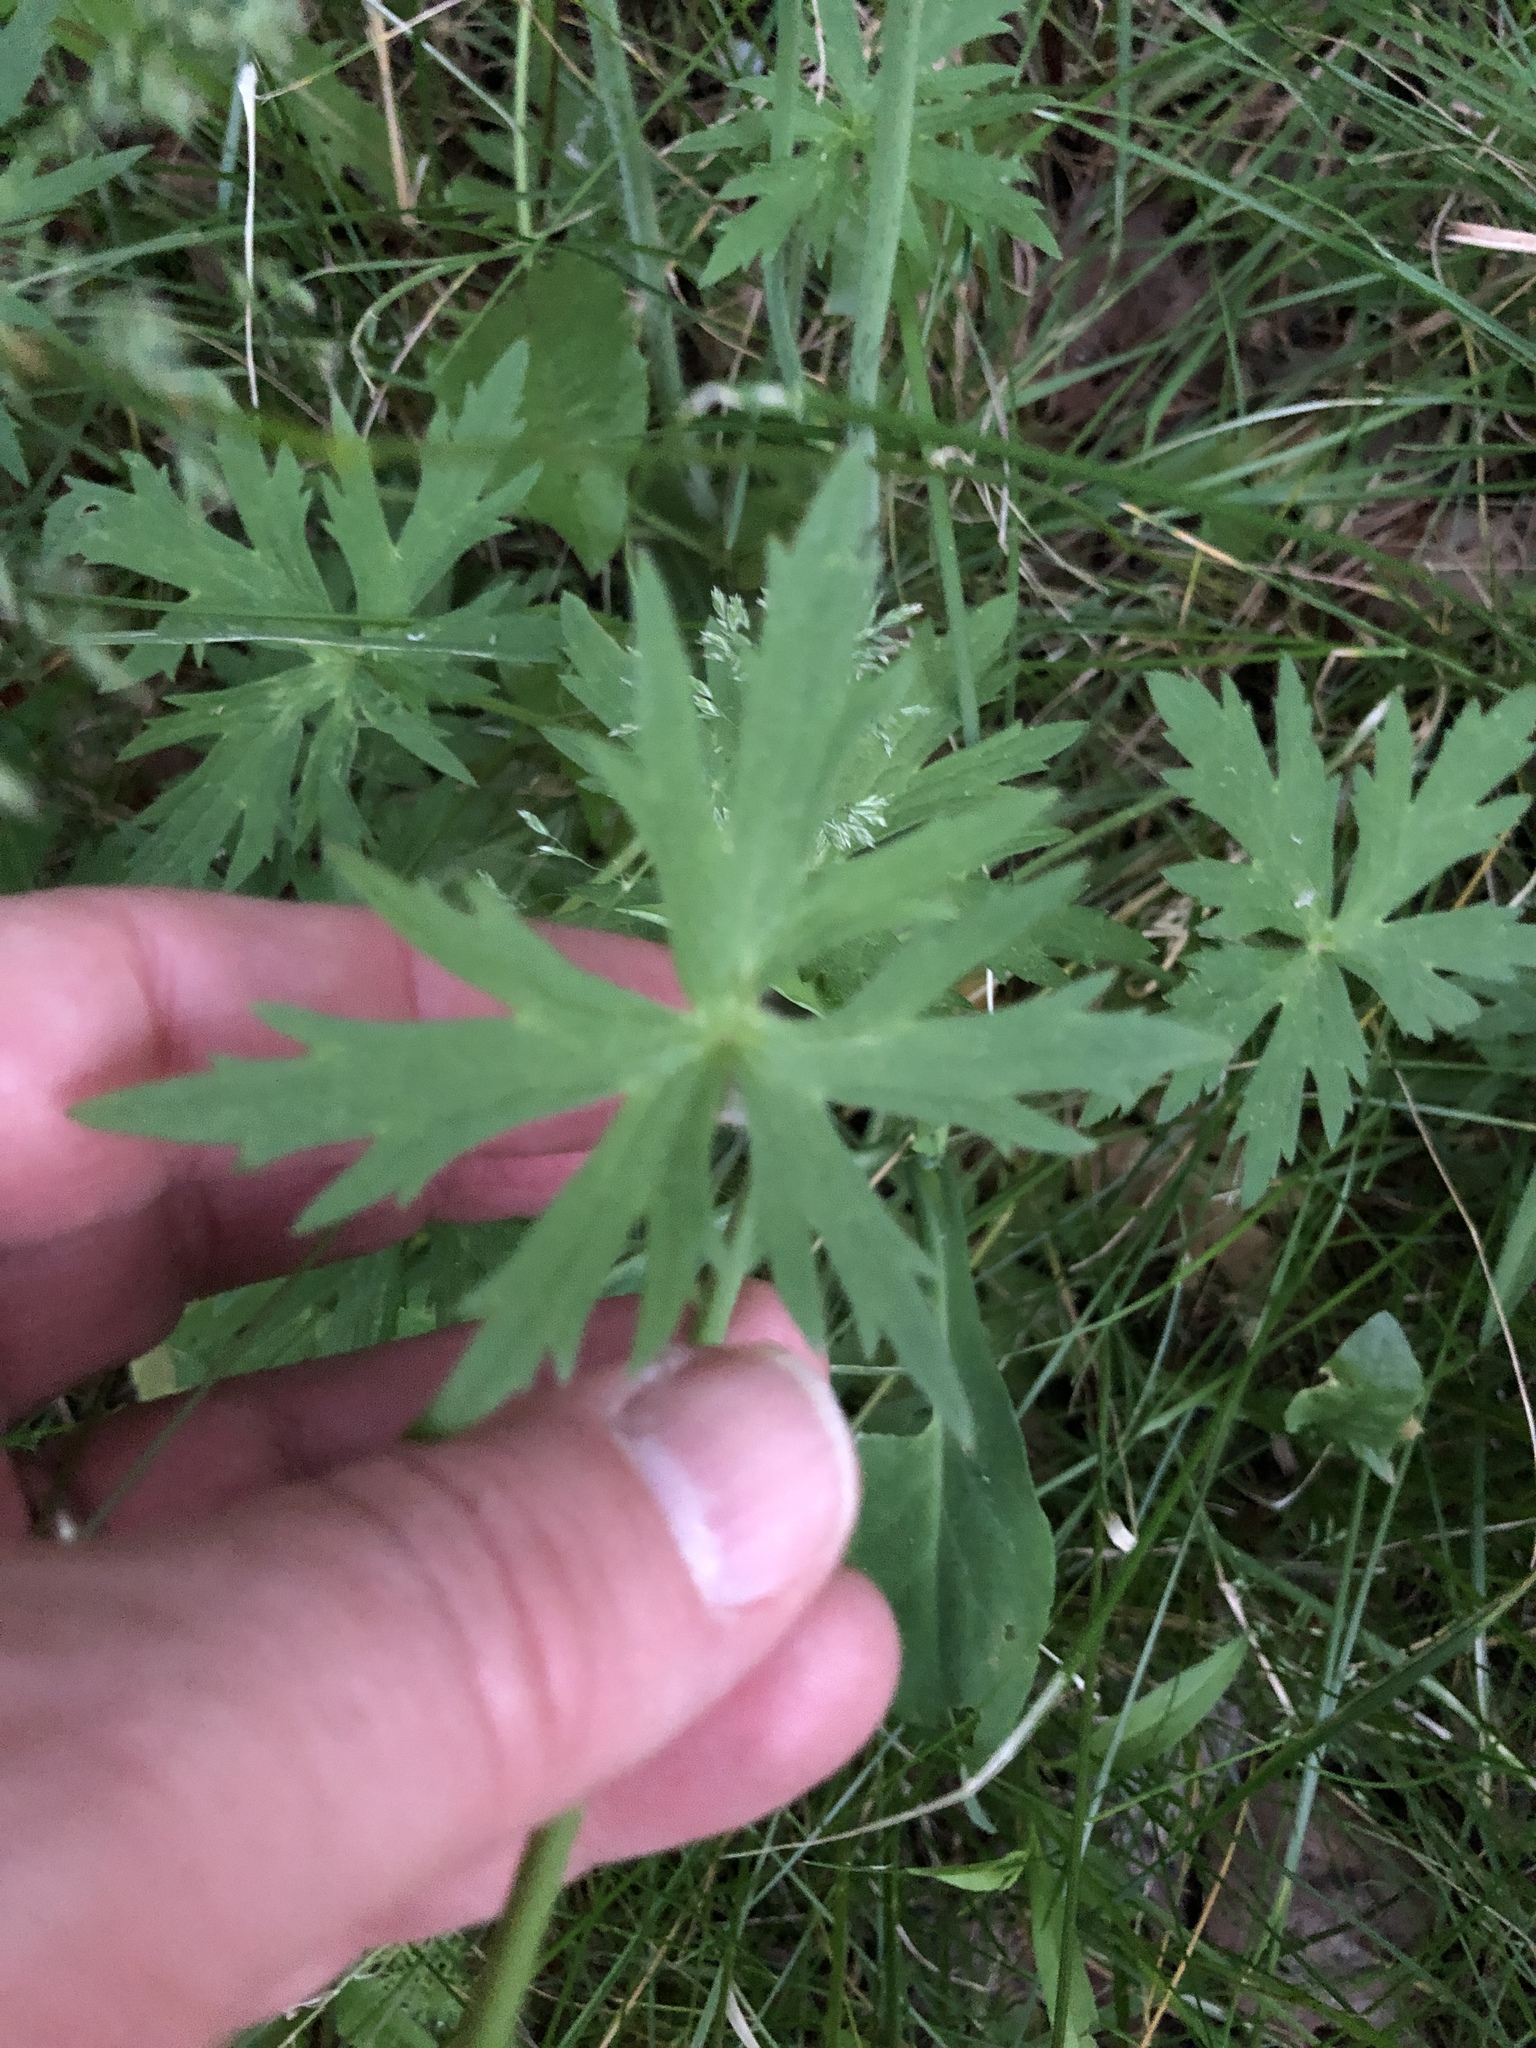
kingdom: Plantae
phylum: Tracheophyta
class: Magnoliopsida
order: Ranunculales
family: Ranunculaceae
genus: Ranunculus
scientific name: Ranunculus acris
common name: Meadow buttercup
